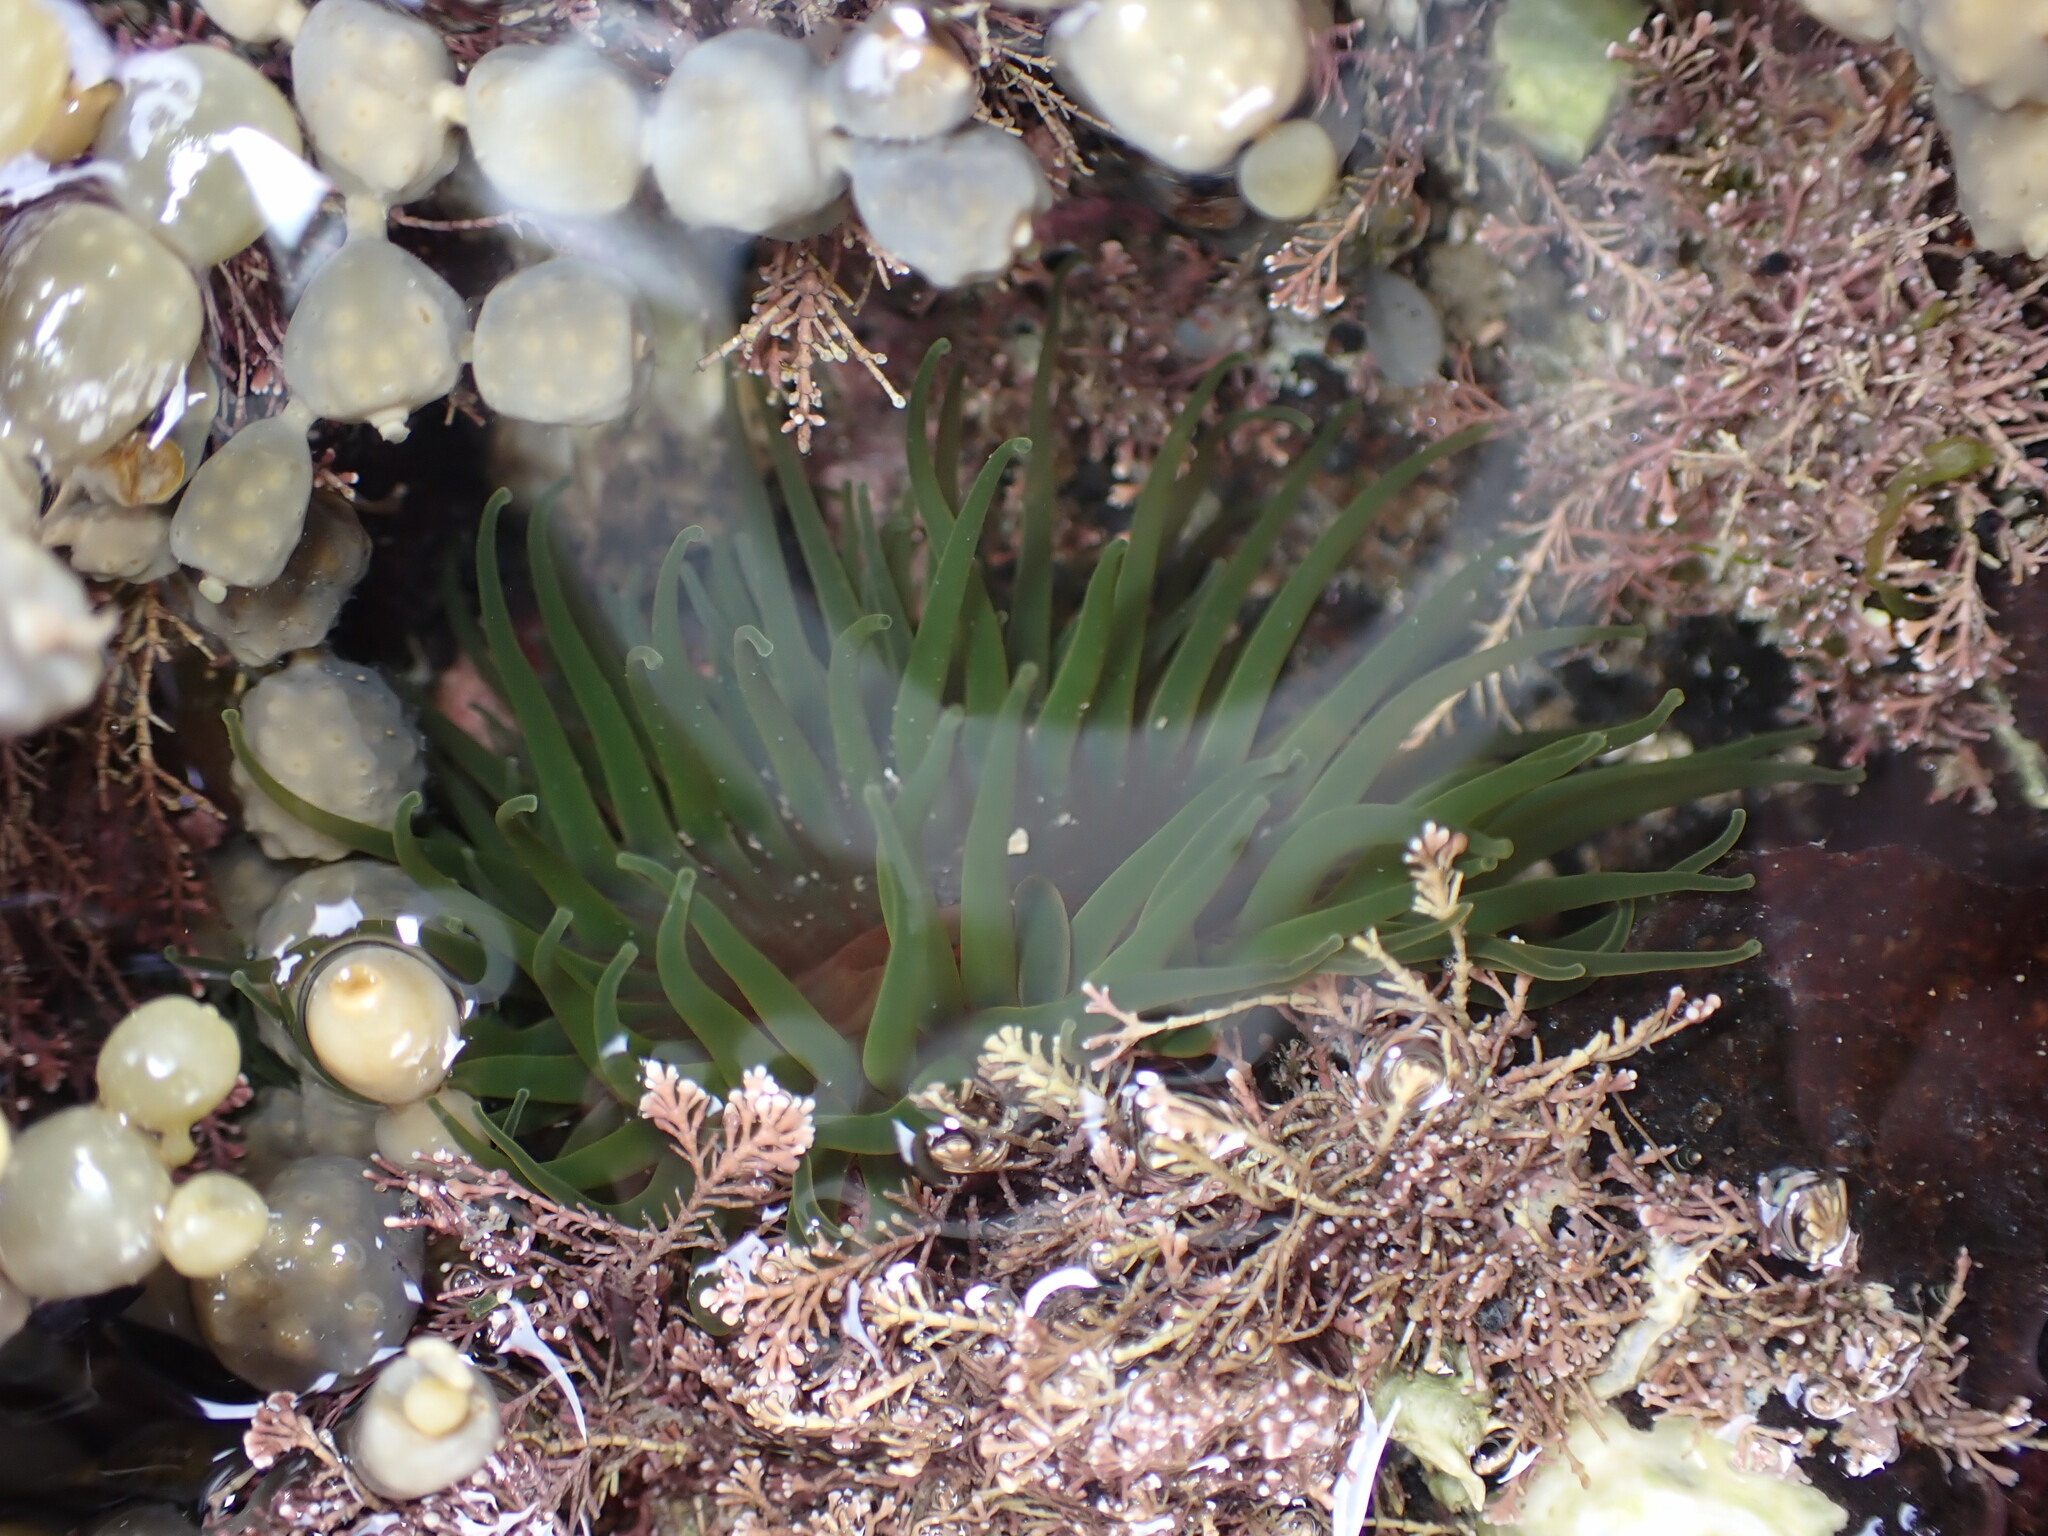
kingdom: Animalia
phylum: Cnidaria
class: Anthozoa
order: Actiniaria
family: Actiniidae
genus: Aulactinia
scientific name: Aulactinia veratra
